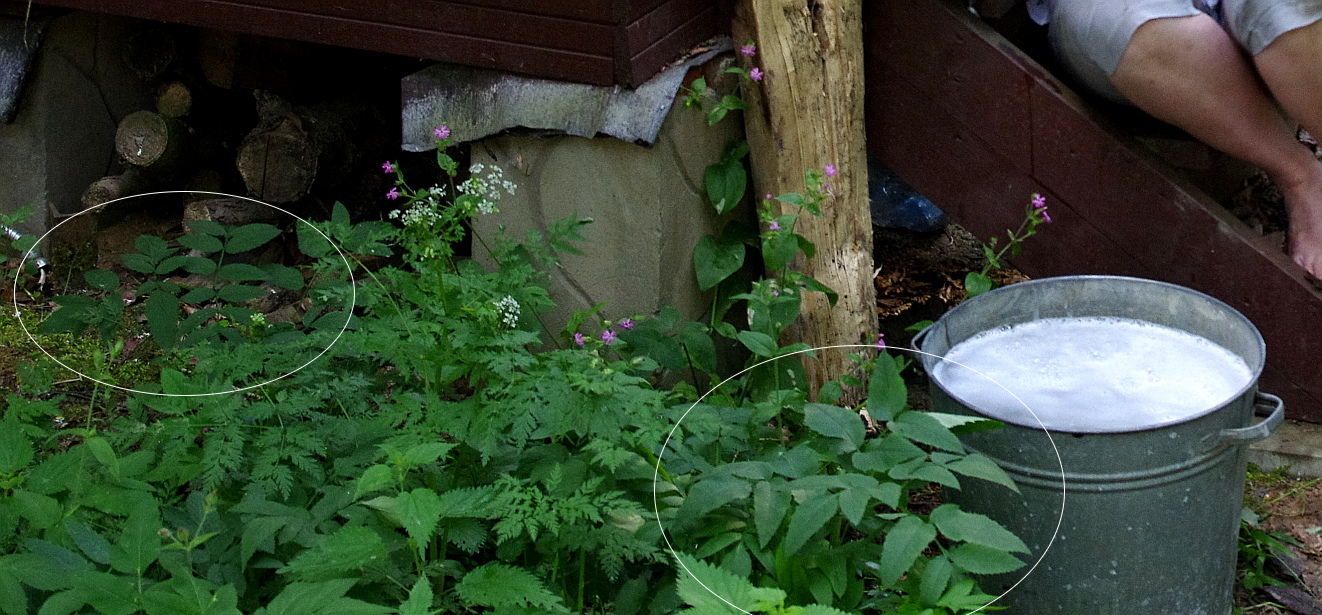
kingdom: Plantae
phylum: Tracheophyta
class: Magnoliopsida
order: Apiales
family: Apiaceae
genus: Angelica
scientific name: Angelica sylvestris
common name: Wild angelica
